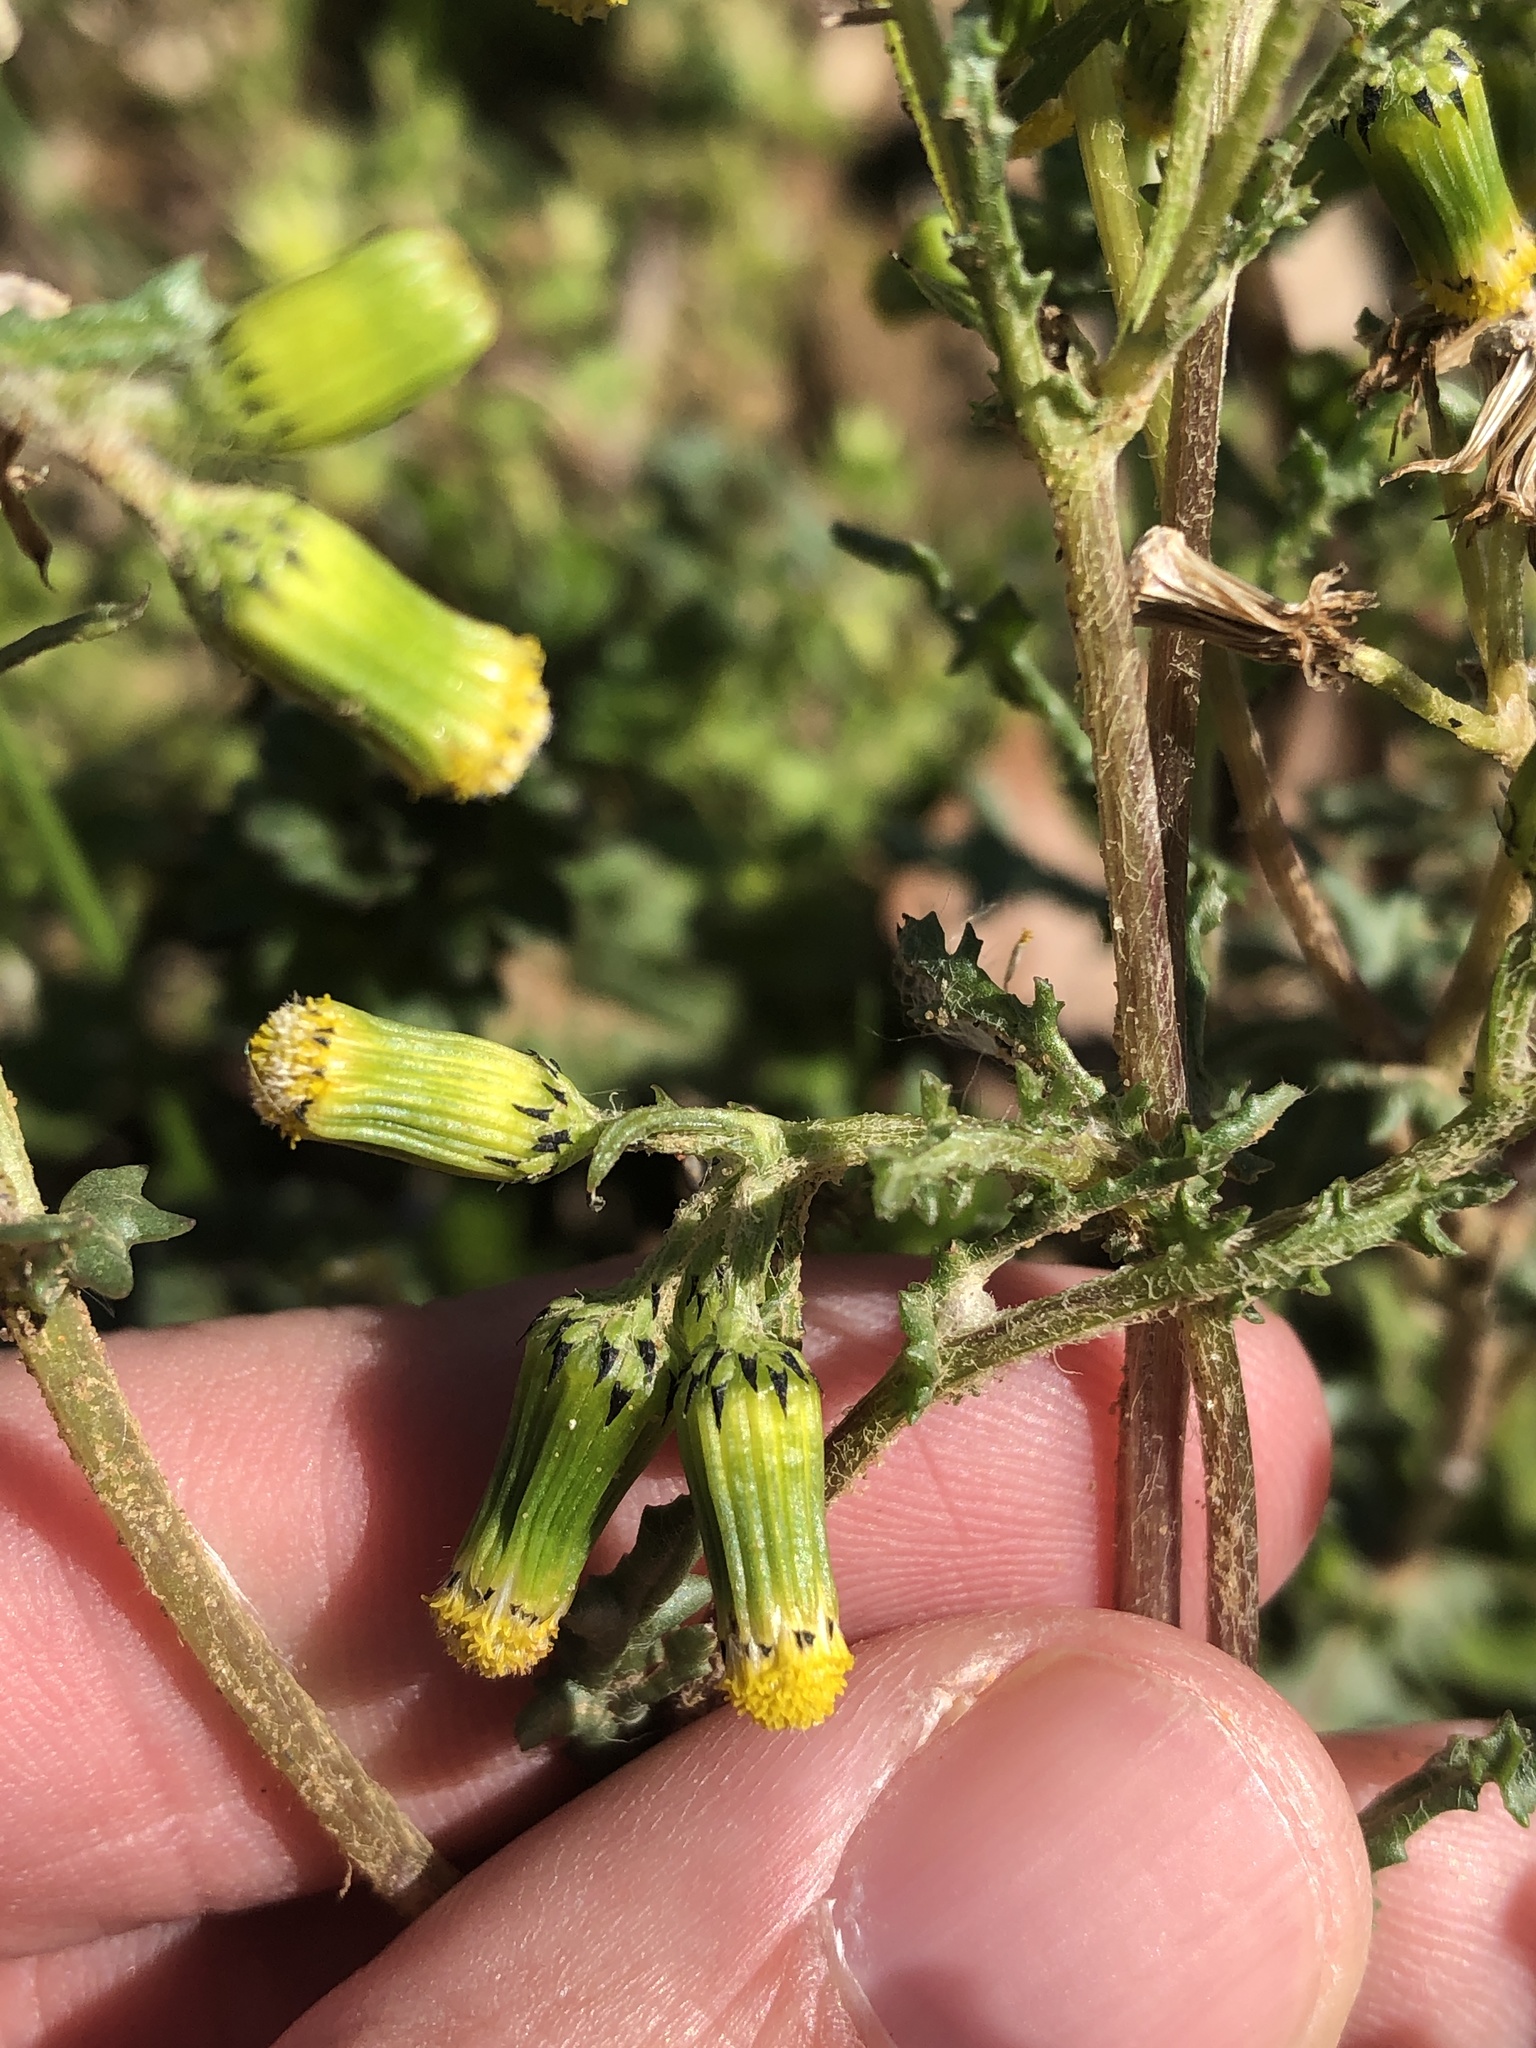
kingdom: Plantae
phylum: Tracheophyta
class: Magnoliopsida
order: Asterales
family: Asteraceae
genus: Senecio
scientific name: Senecio vulgaris
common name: Old-man-in-the-spring
